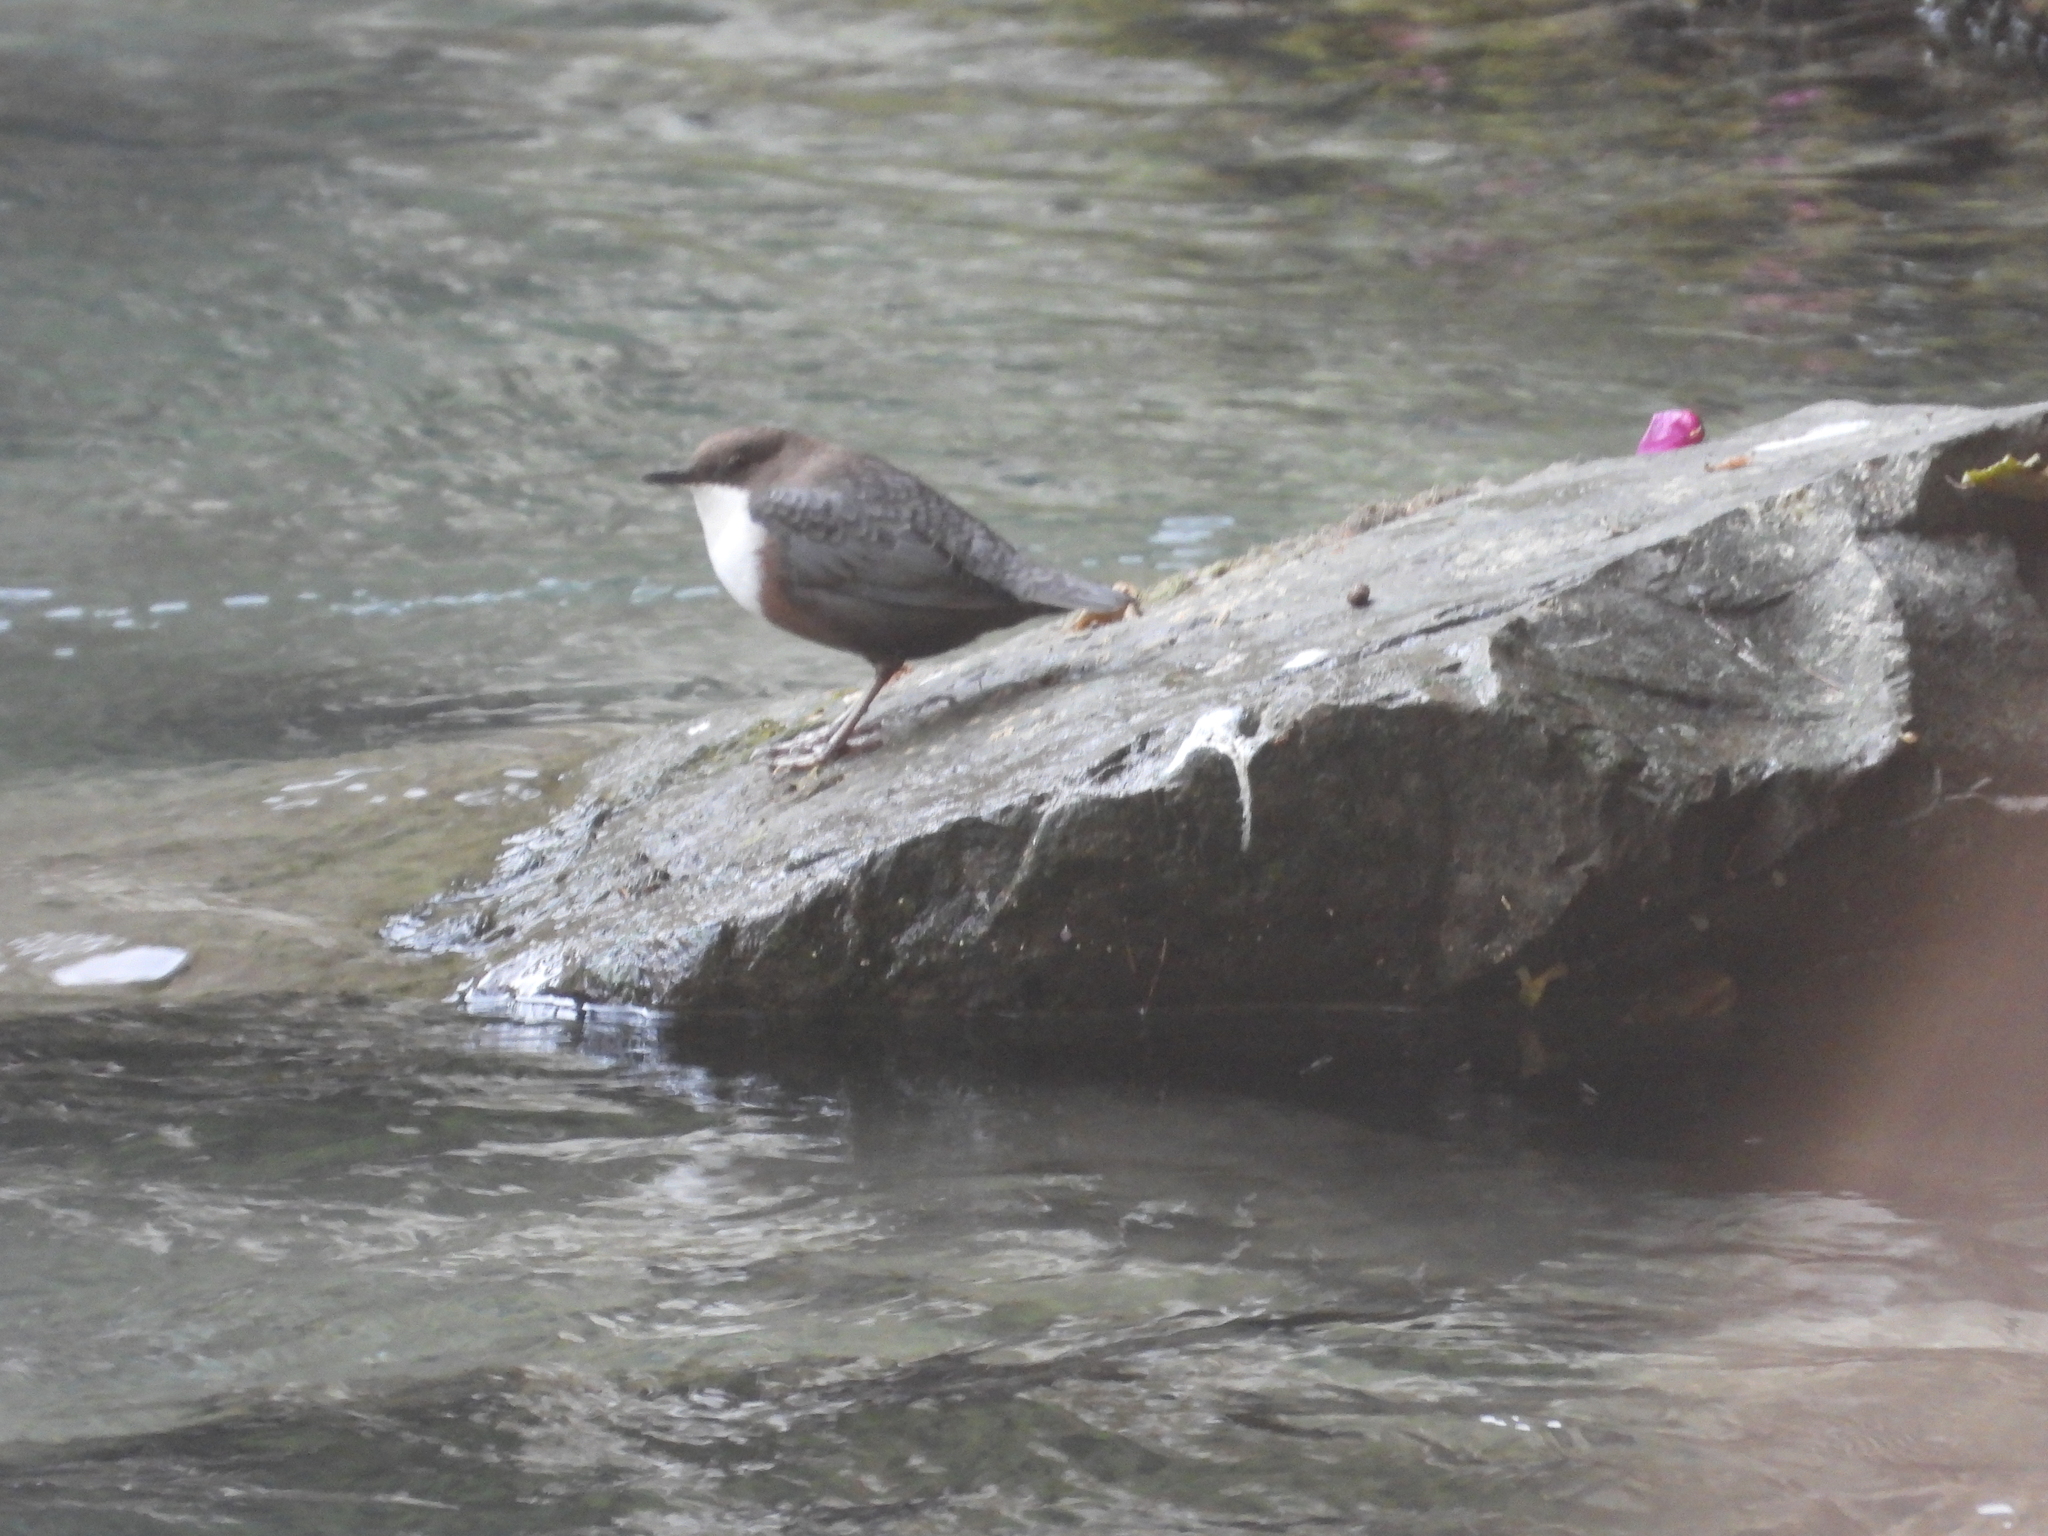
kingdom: Animalia
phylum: Chordata
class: Aves
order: Passeriformes
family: Cinclidae
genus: Cinclus
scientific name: Cinclus cinclus
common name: White-throated dipper
